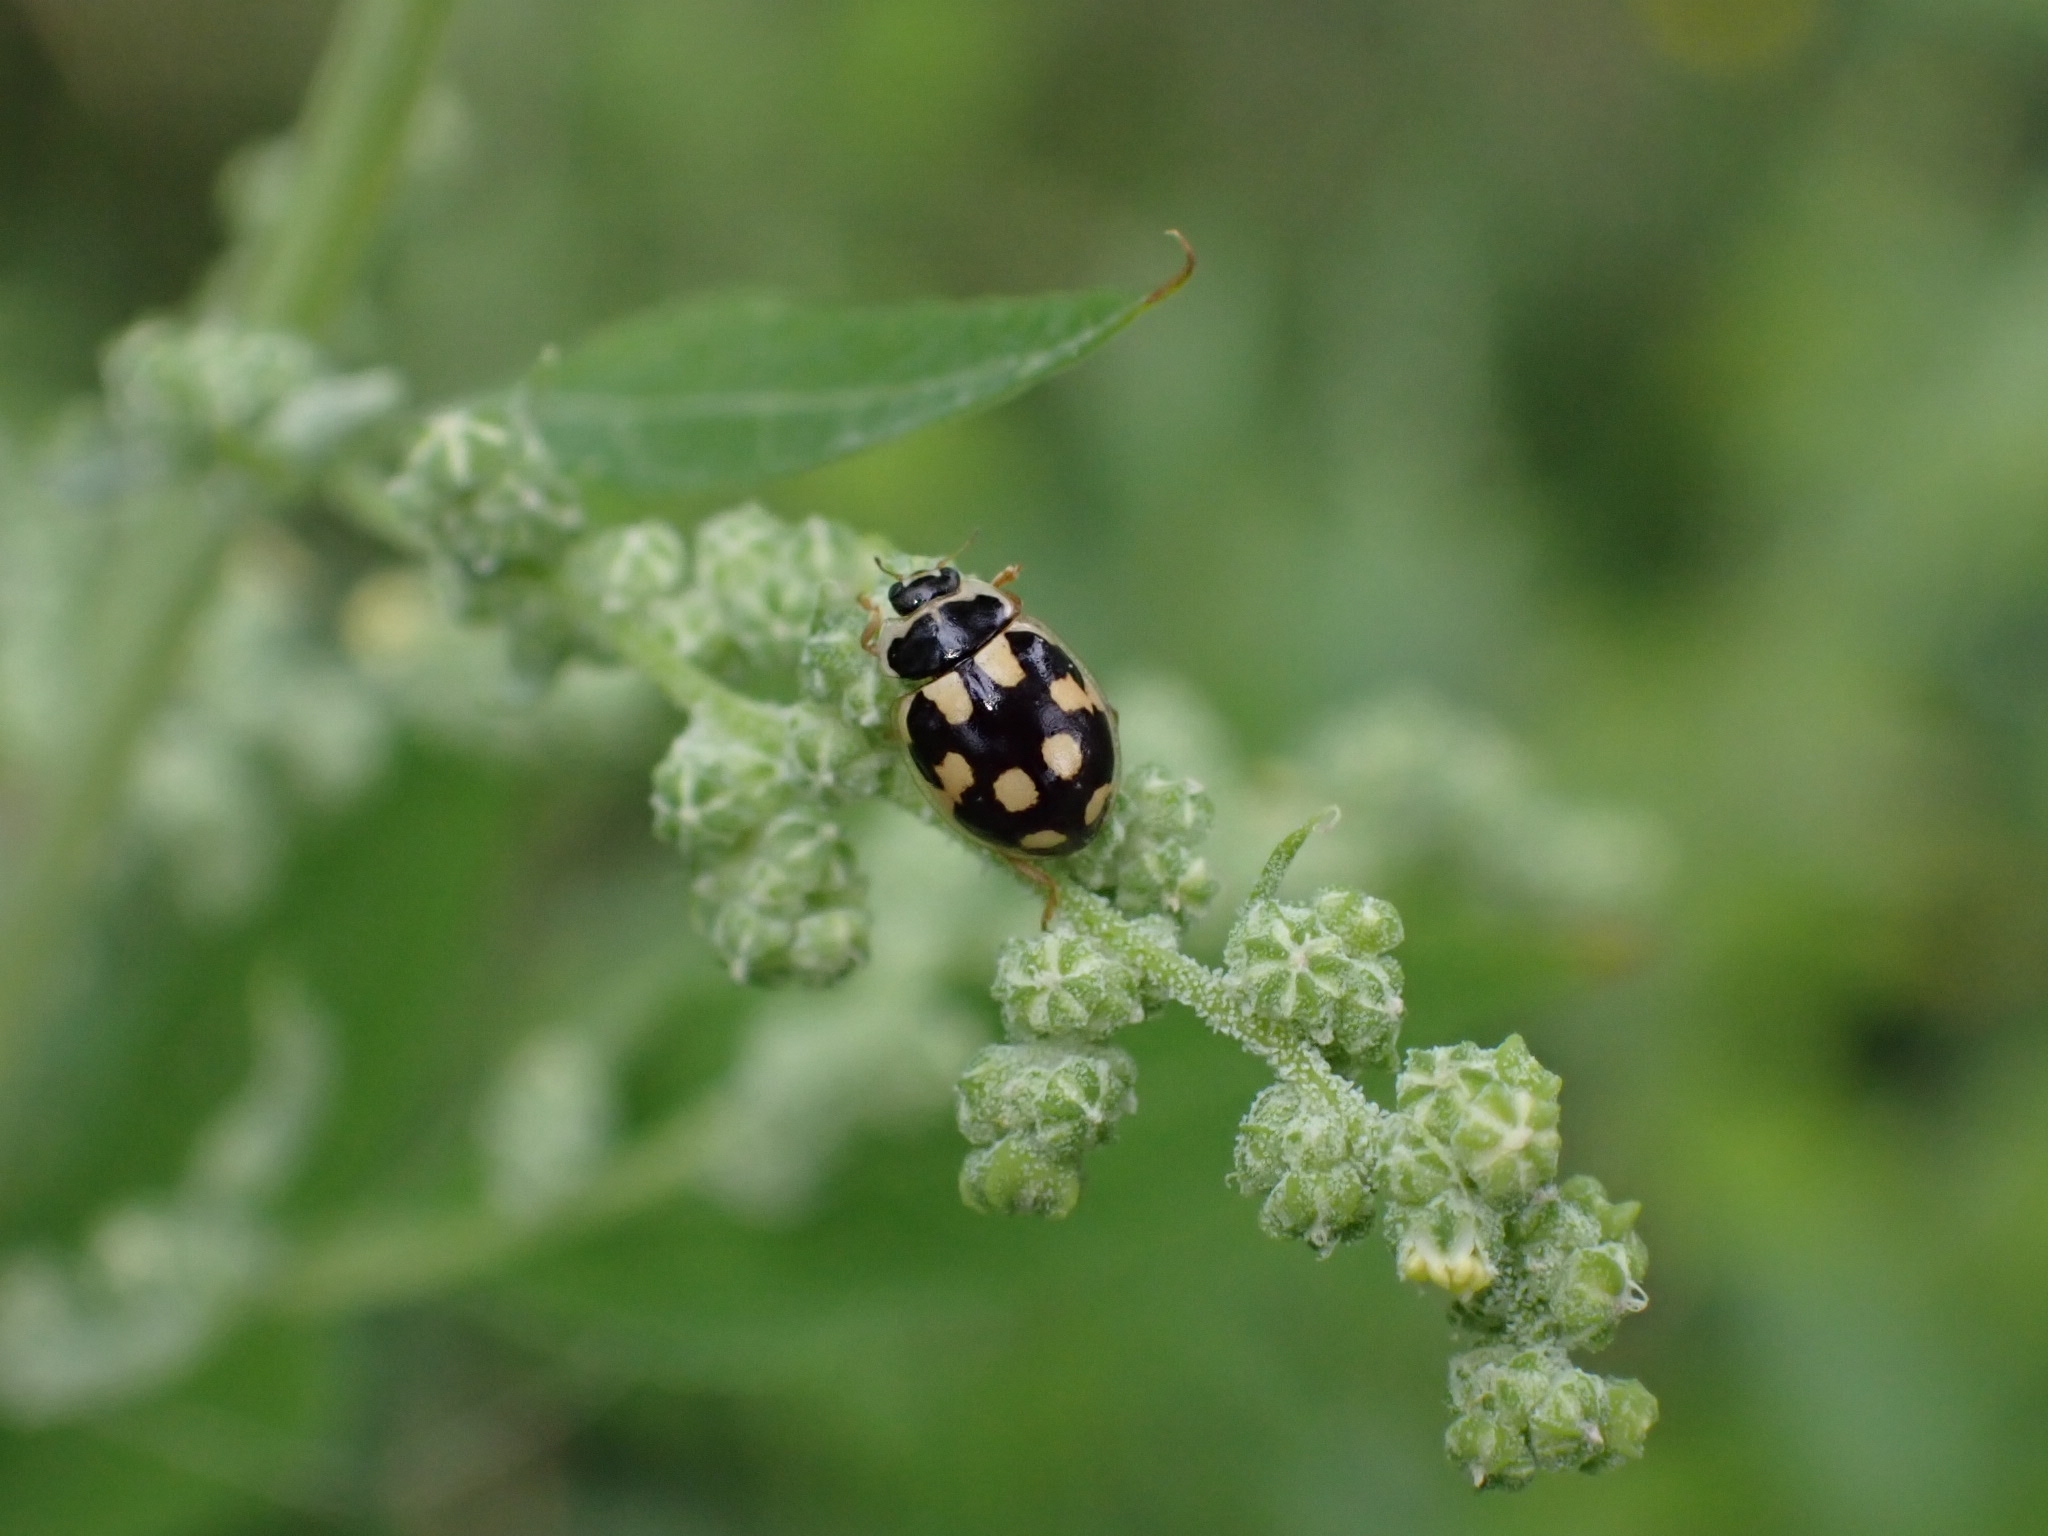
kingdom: Animalia
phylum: Arthropoda
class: Insecta
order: Coleoptera
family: Coccinellidae
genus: Propylaea
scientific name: Propylaea quatuordecimpunctata
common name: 14-spotted ladybird beetle
